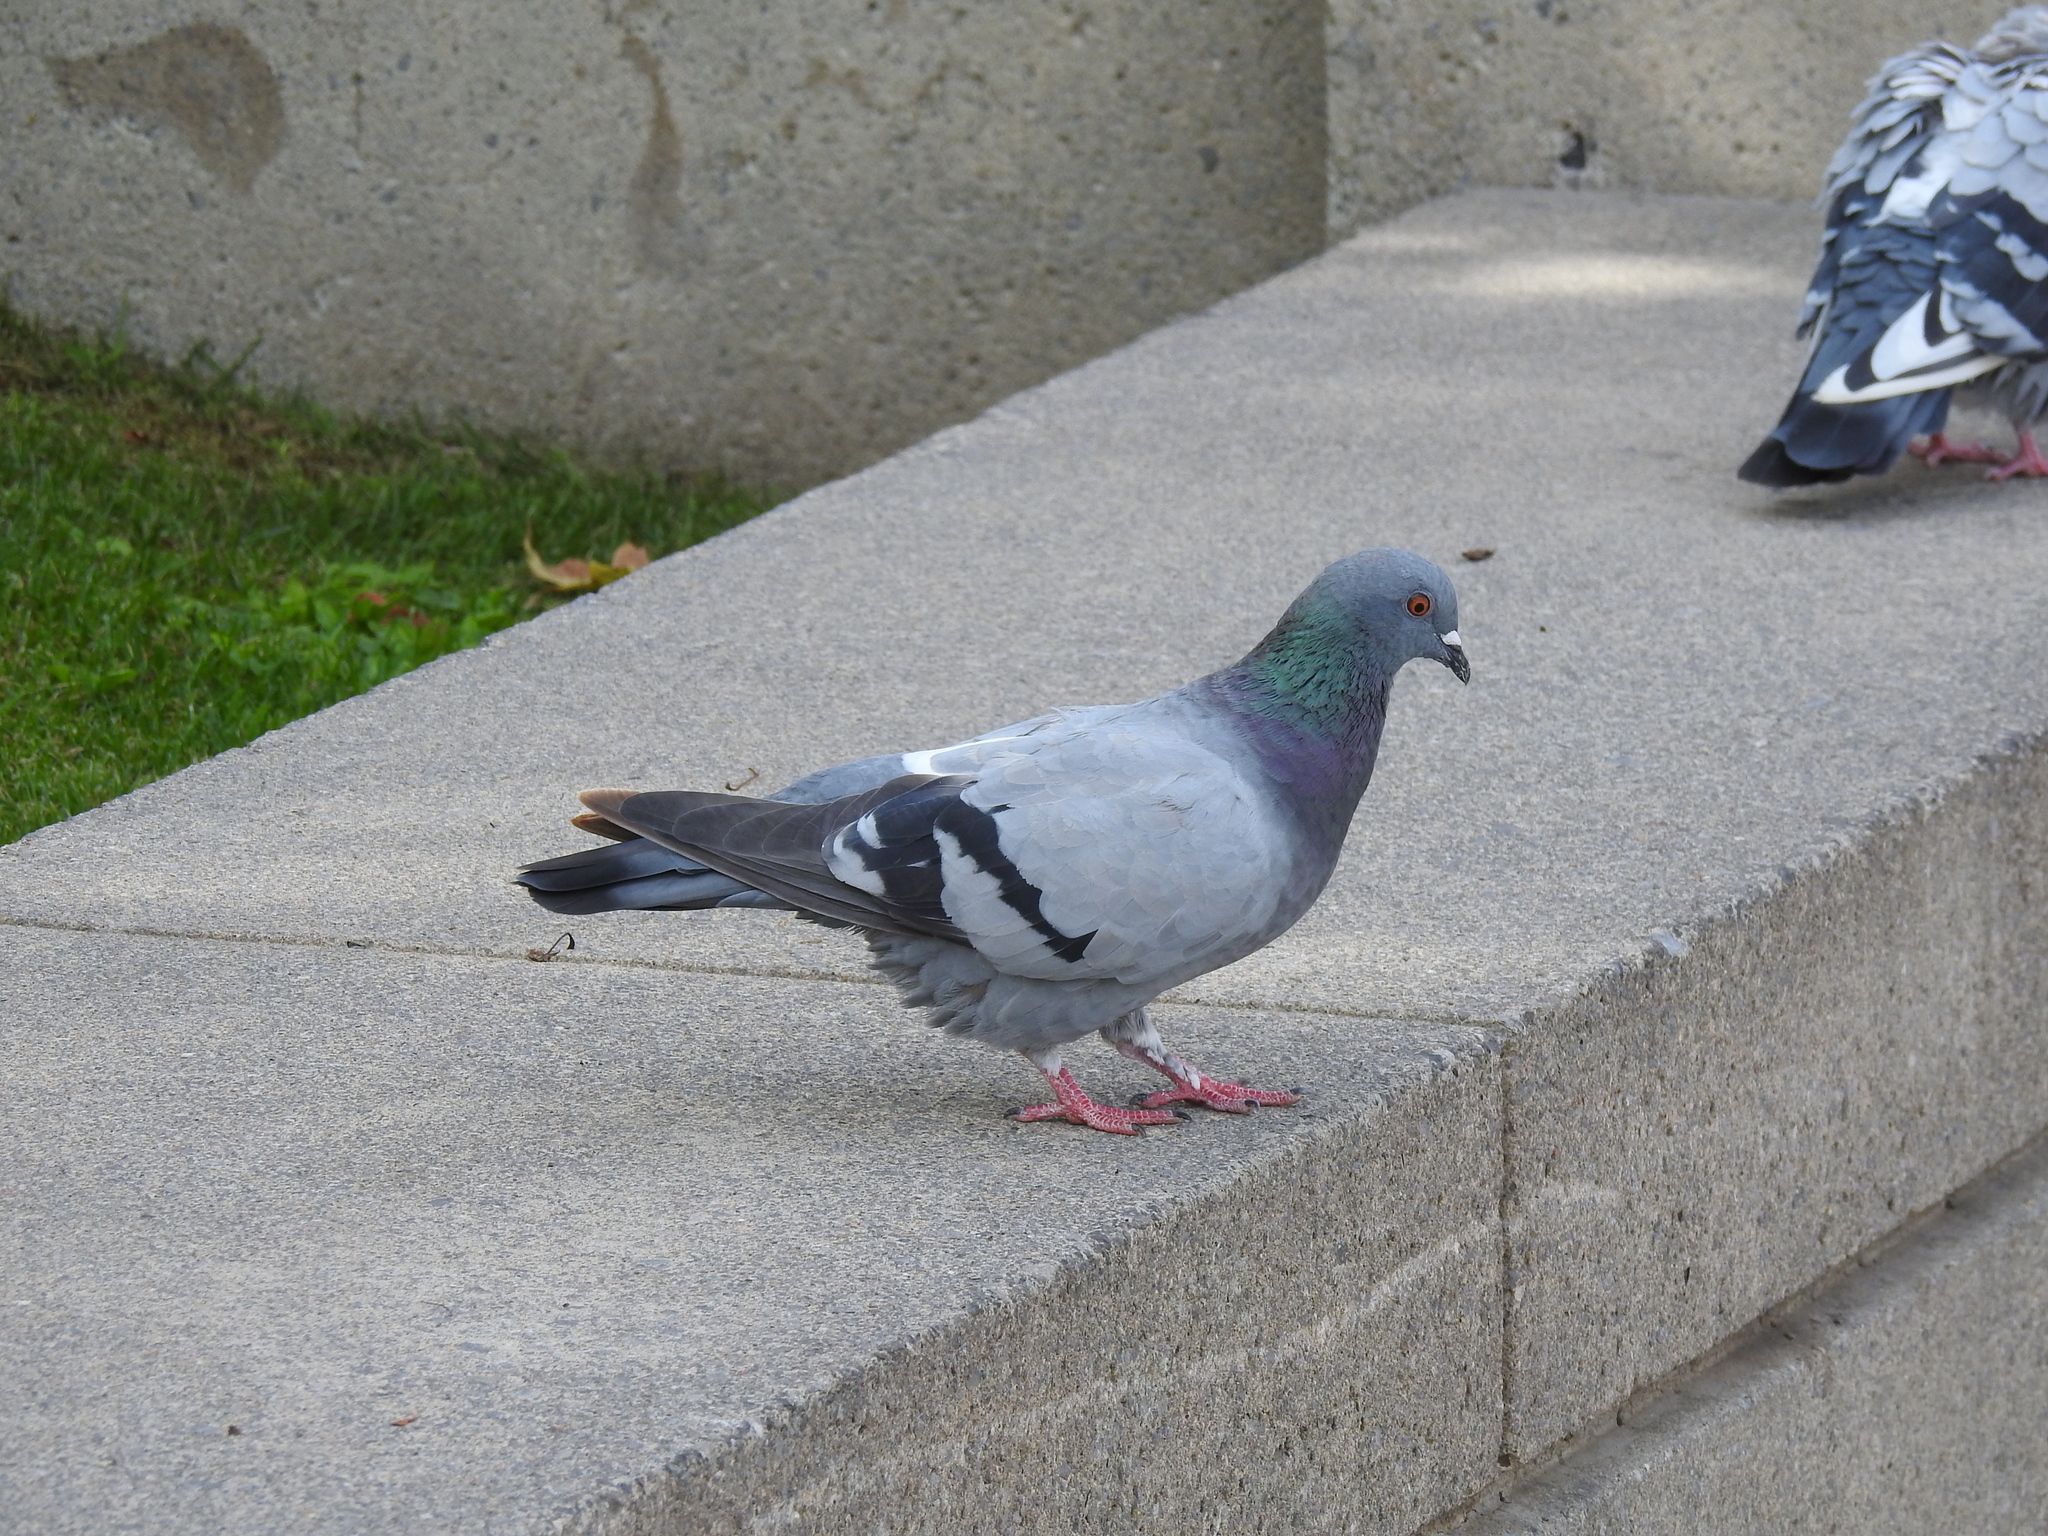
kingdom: Animalia
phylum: Chordata
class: Aves
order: Columbiformes
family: Columbidae
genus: Columba
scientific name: Columba livia
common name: Rock pigeon
